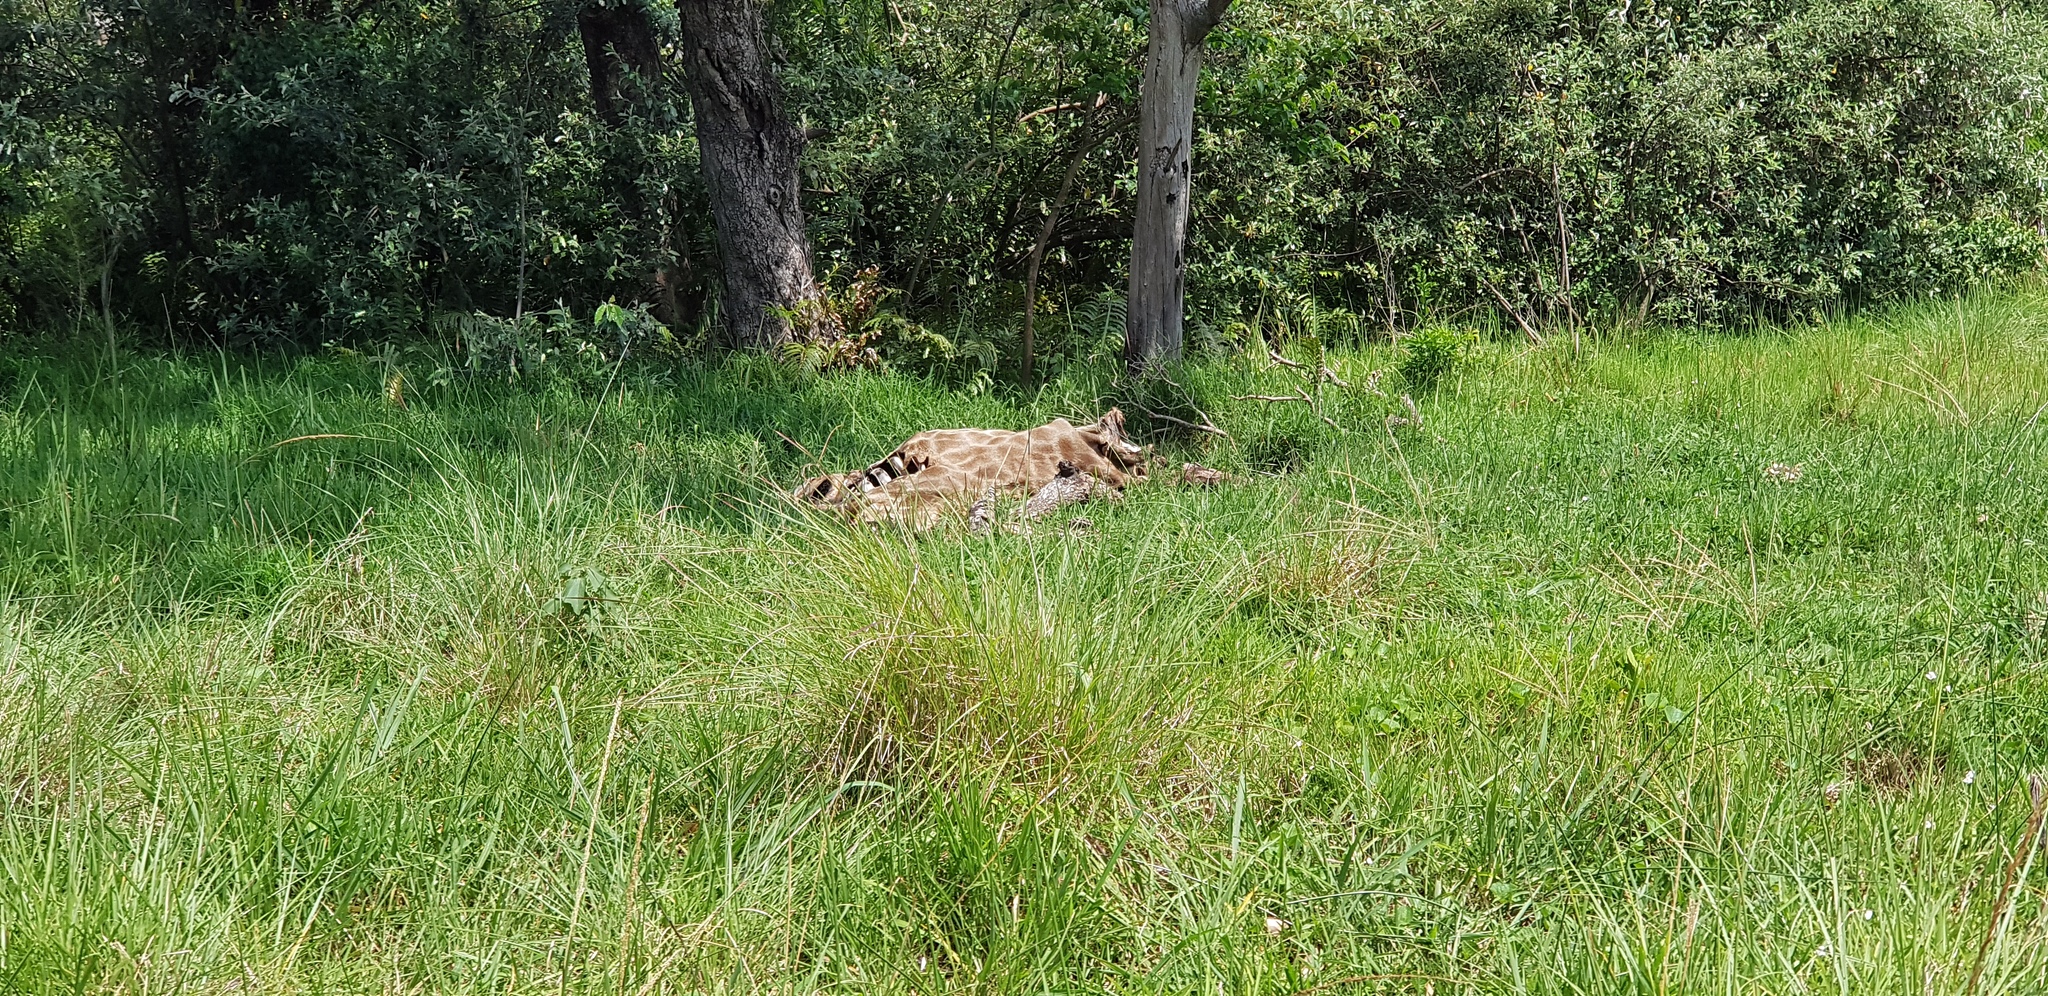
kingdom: Animalia
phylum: Chordata
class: Mammalia
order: Artiodactyla
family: Giraffidae
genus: Giraffa
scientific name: Giraffa giraffa
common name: Southern giraffe
